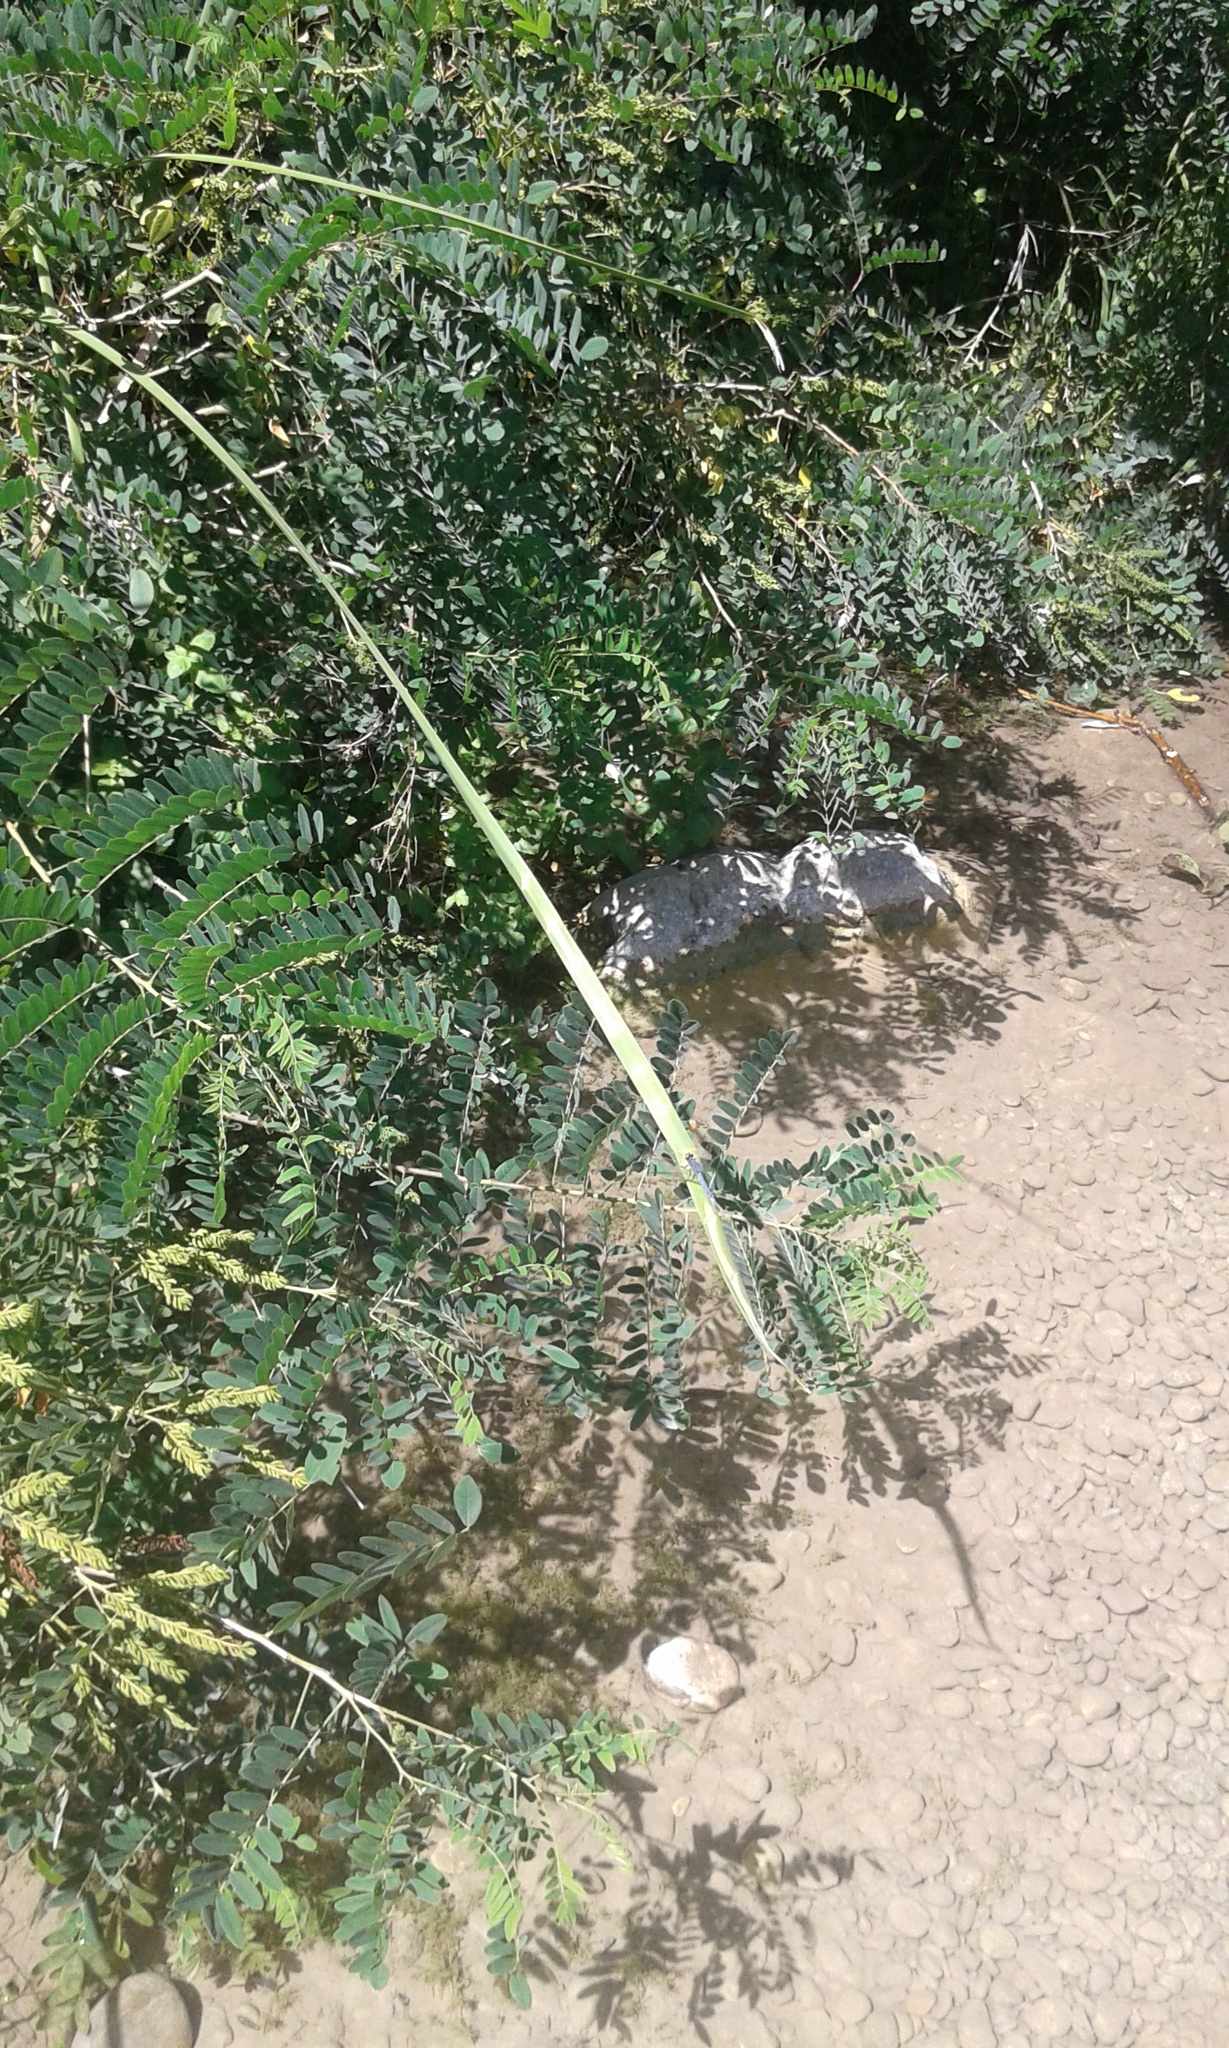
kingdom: Plantae
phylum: Tracheophyta
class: Magnoliopsida
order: Fabales
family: Fabaceae
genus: Amorpha
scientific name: Amorpha fruticosa
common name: False indigo
